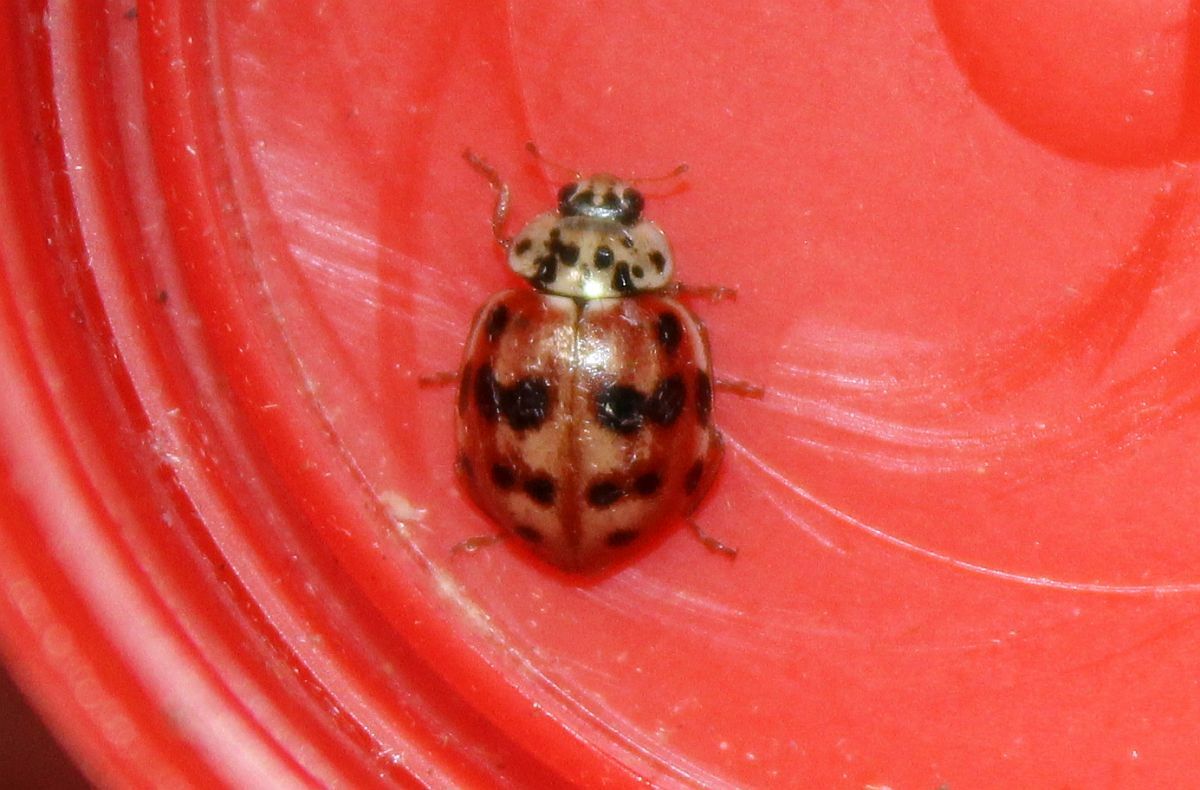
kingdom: Animalia
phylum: Arthropoda
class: Insecta
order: Coleoptera
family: Coccinellidae
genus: Harmonia
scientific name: Harmonia quadripunctata
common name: Cream-streaked ladybird
